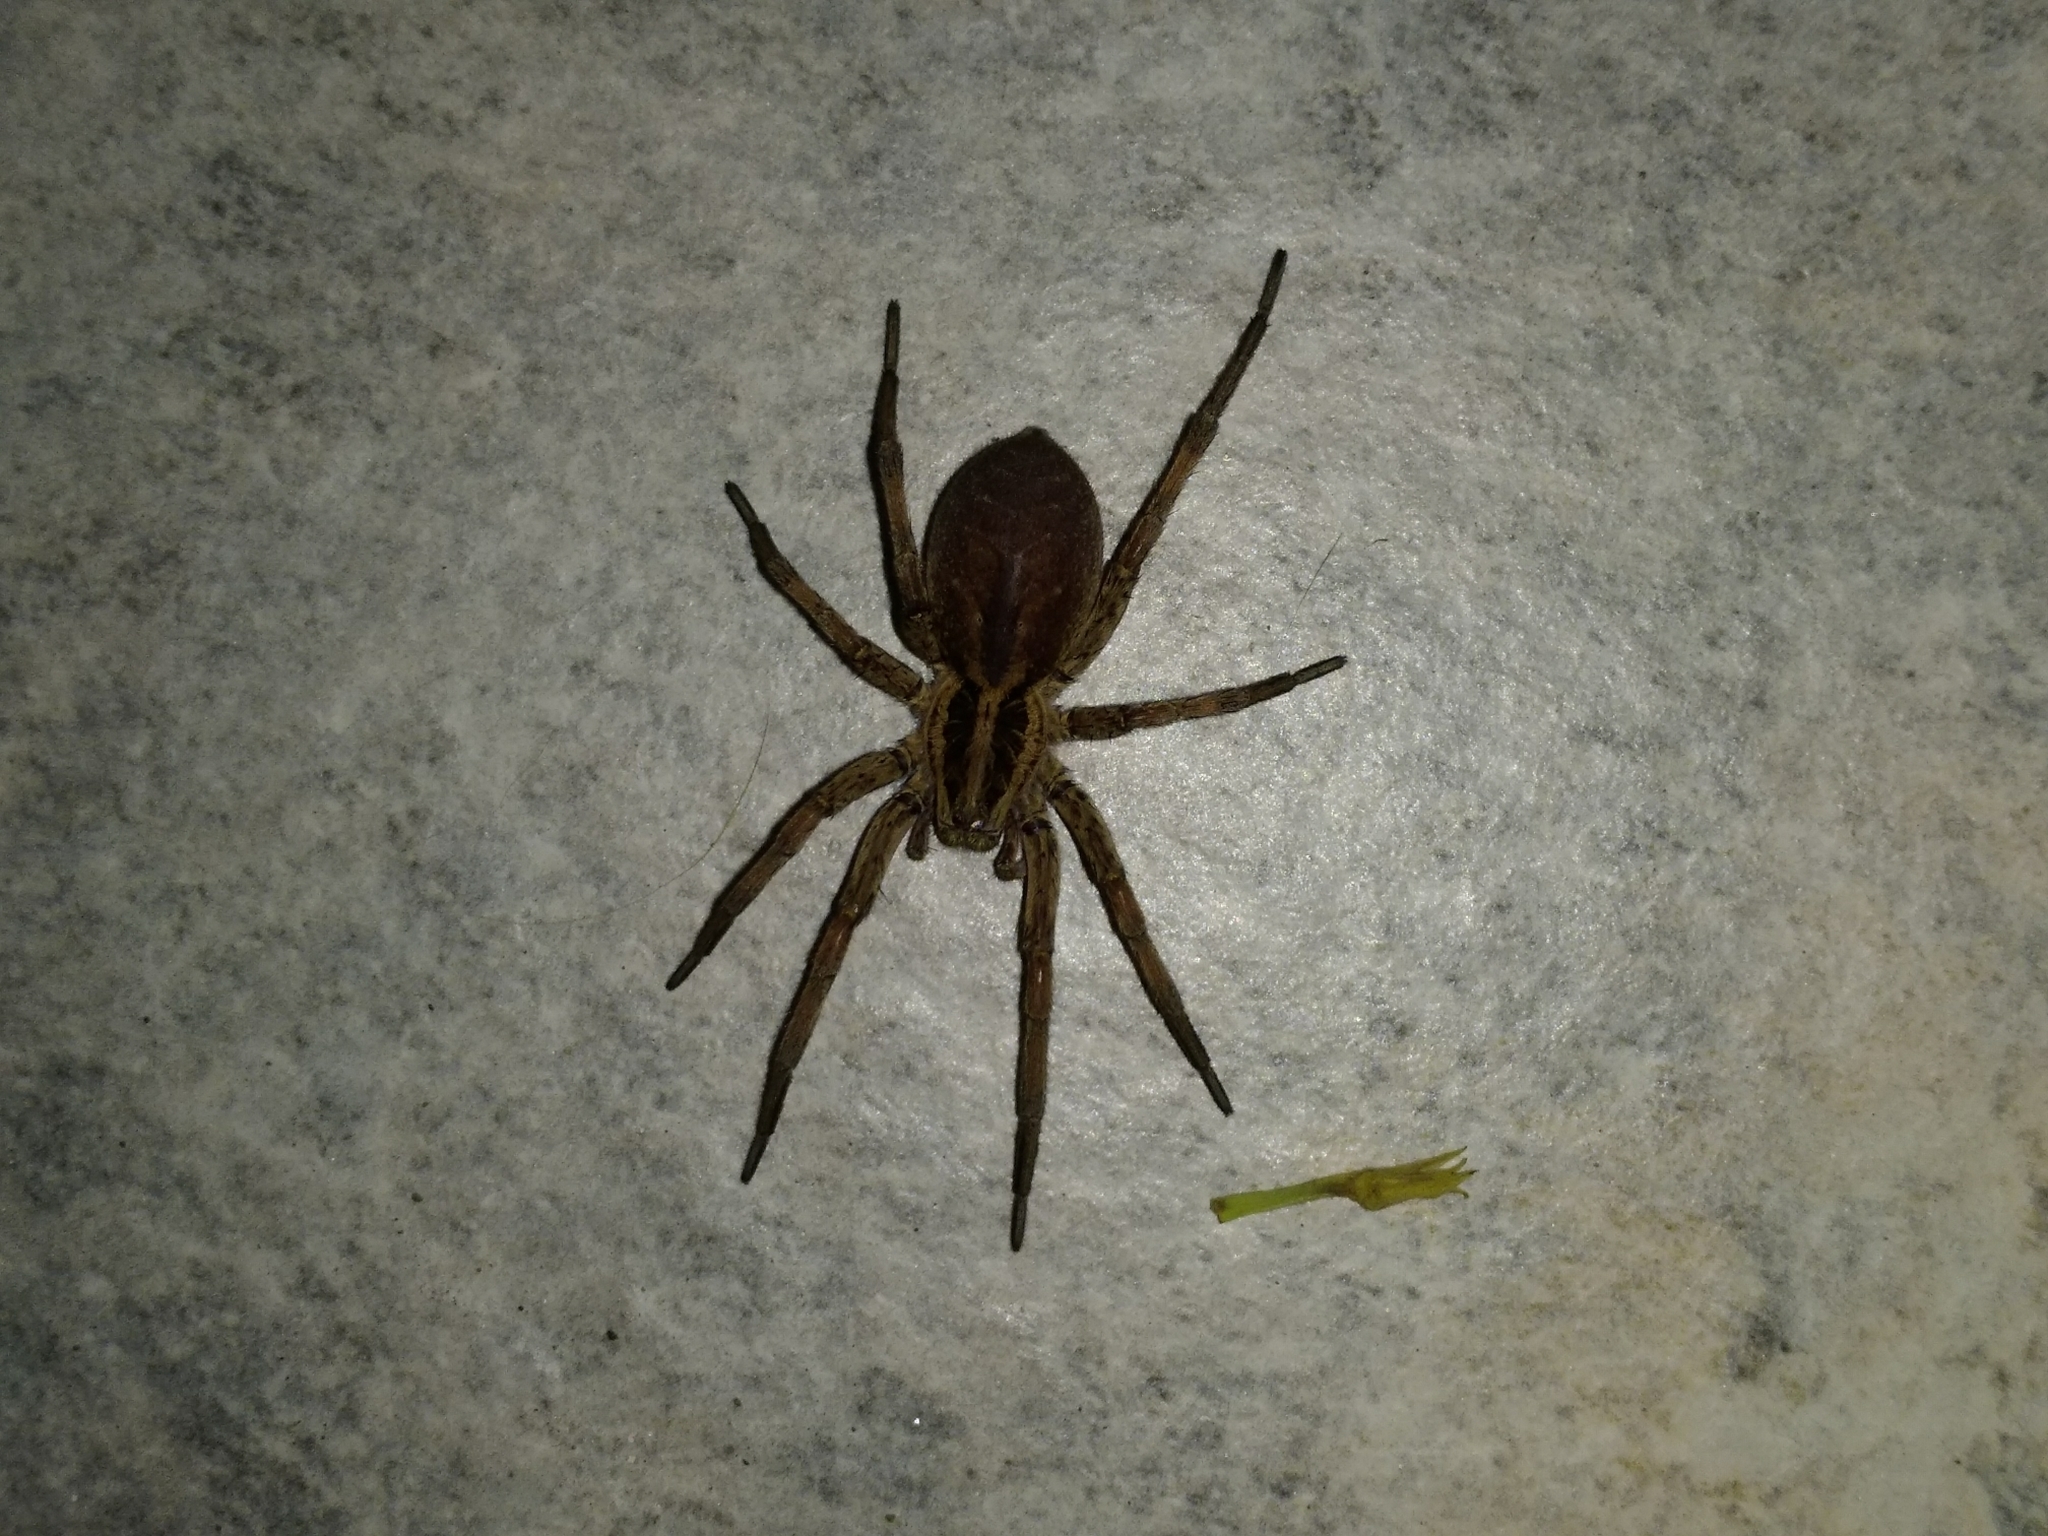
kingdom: Animalia
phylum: Arthropoda
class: Arachnida
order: Araneae
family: Lycosidae
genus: Hogna
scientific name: Hogna radiata
